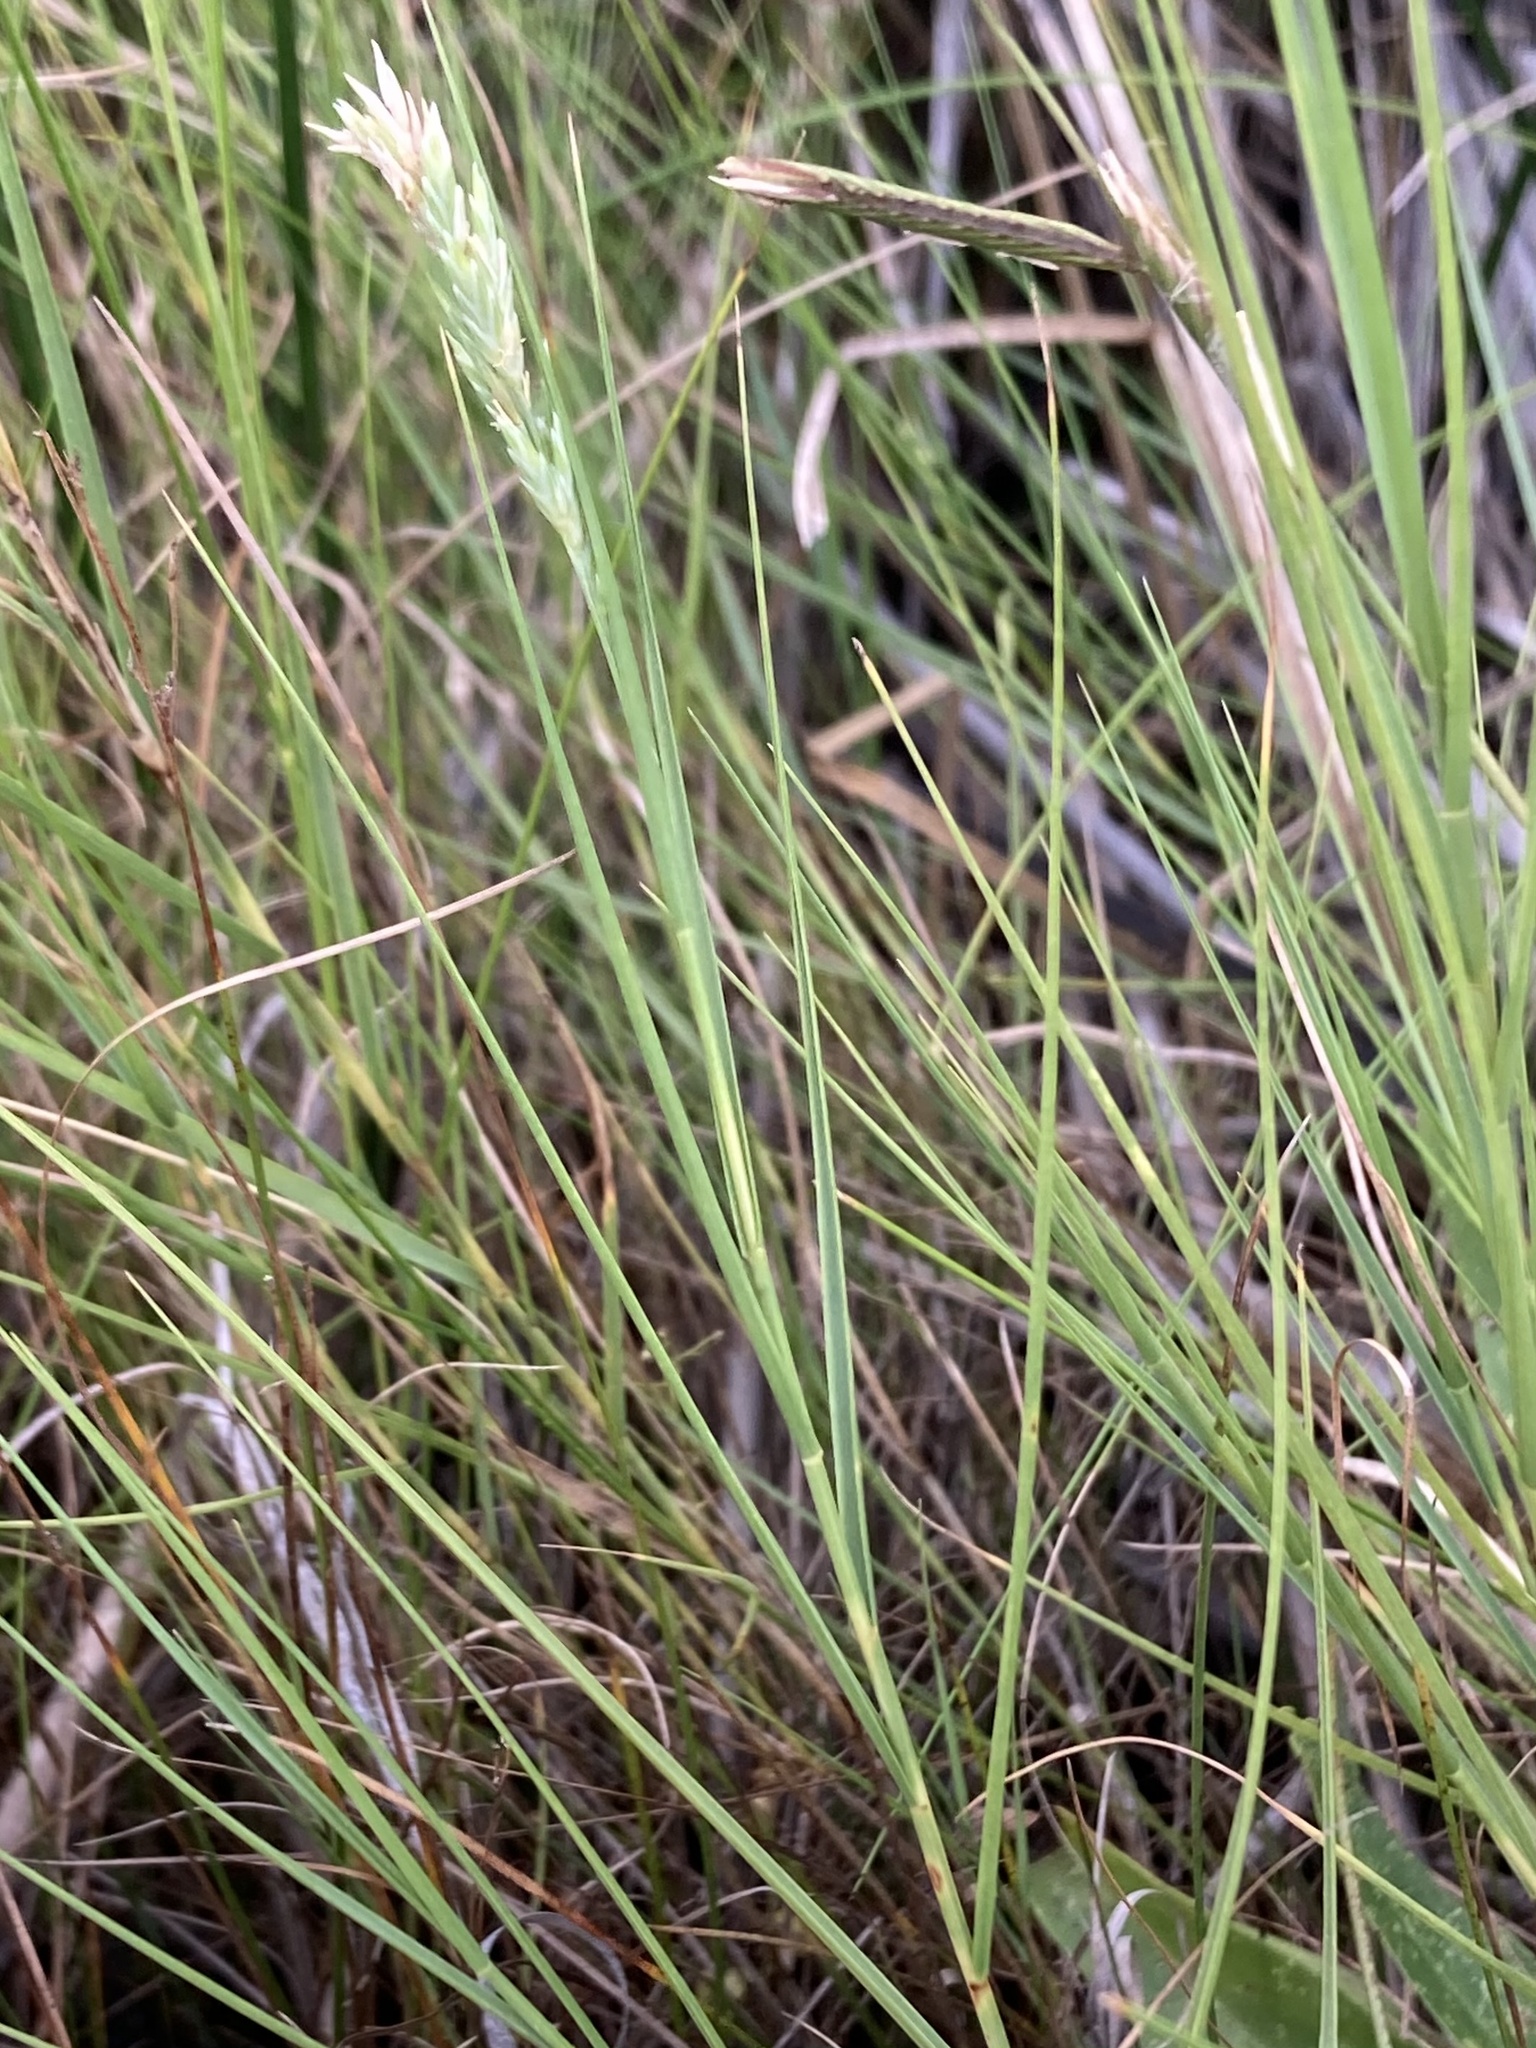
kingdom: Plantae
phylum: Tracheophyta
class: Liliopsida
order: Poales
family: Poaceae
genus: Distichlis
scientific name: Distichlis spicata
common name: Saltgrass
